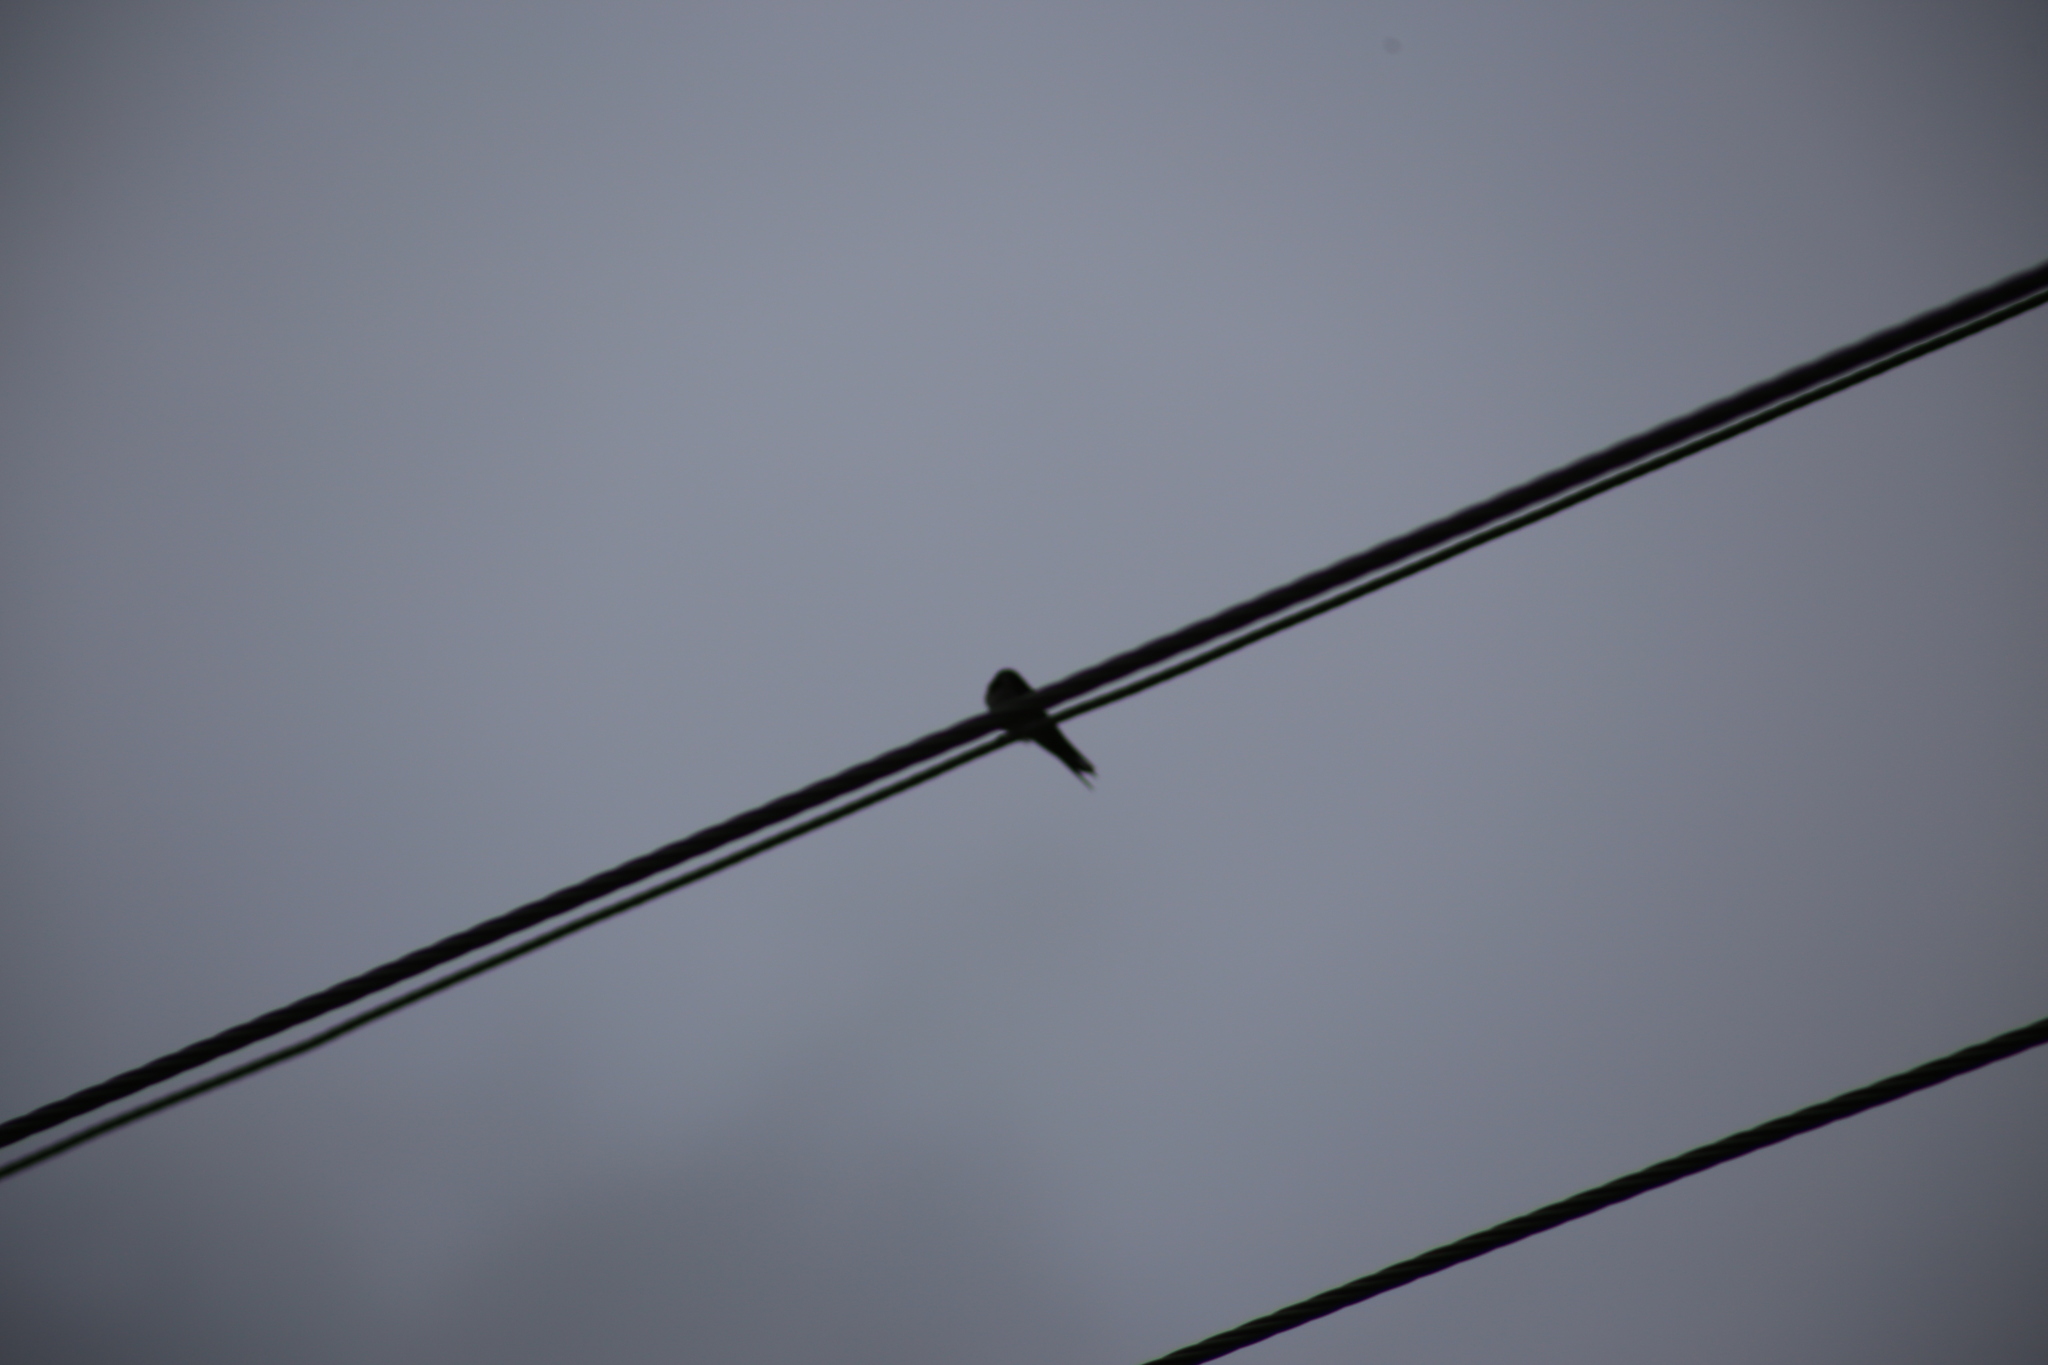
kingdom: Animalia
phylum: Chordata
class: Aves
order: Passeriformes
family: Hirundinidae
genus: Hirundo
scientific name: Hirundo neoxena
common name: Welcome swallow
